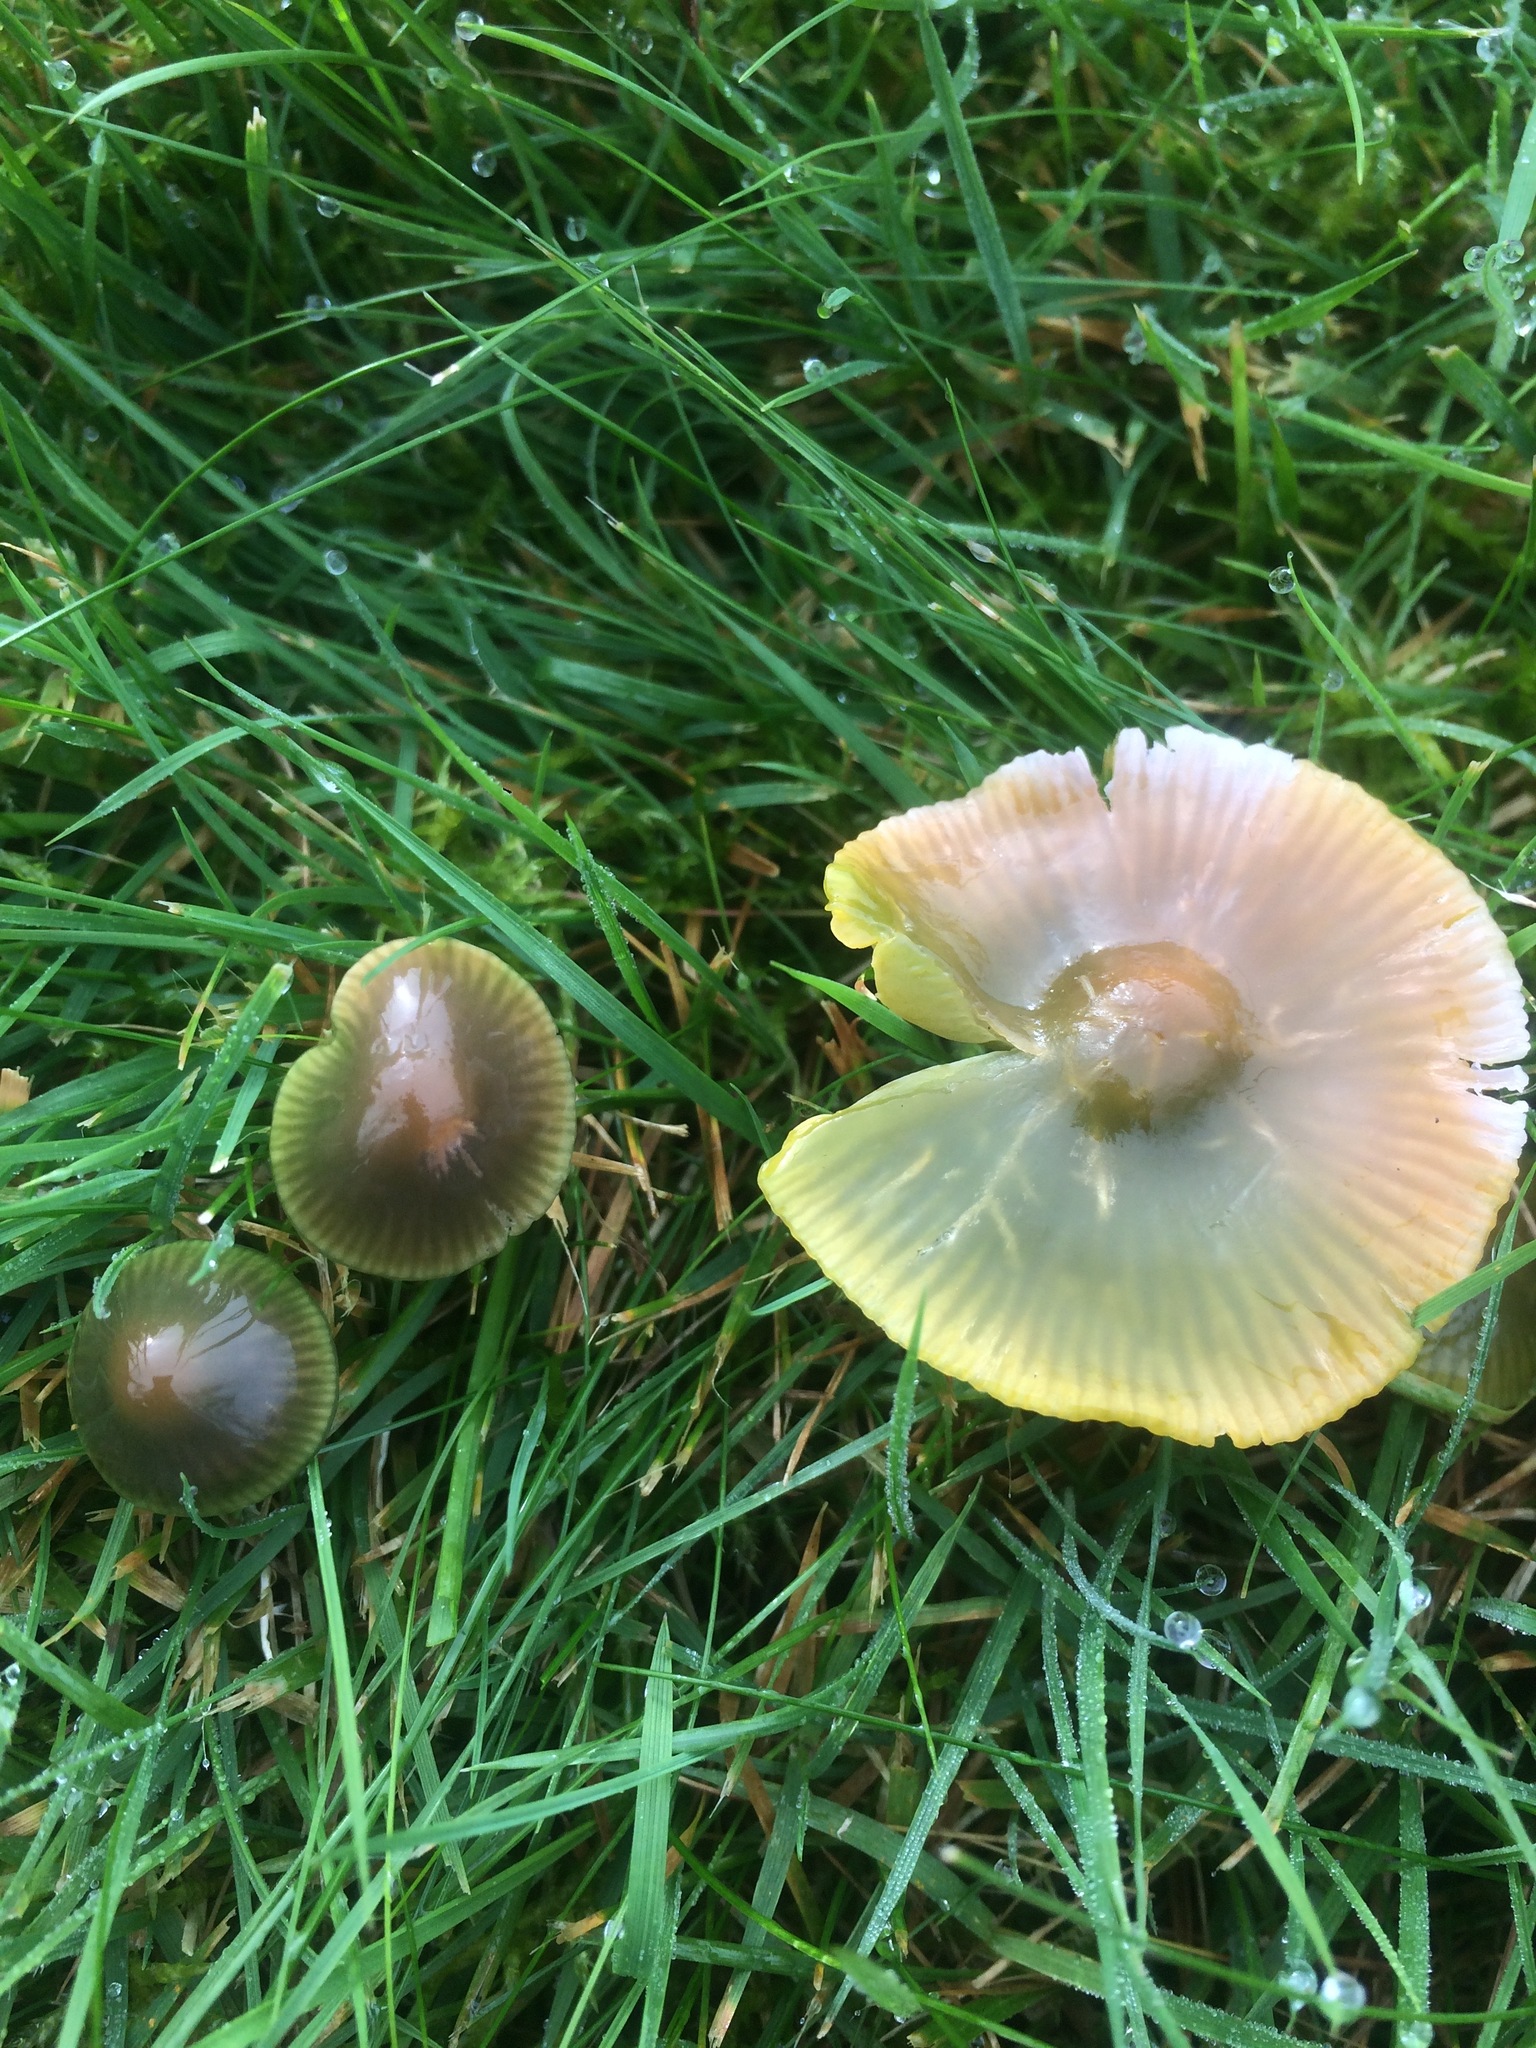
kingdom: Fungi
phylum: Basidiomycota
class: Agaricomycetes
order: Agaricales
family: Hygrophoraceae
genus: Gliophorus
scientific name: Gliophorus psittacinus
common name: Parrot wax-cap
